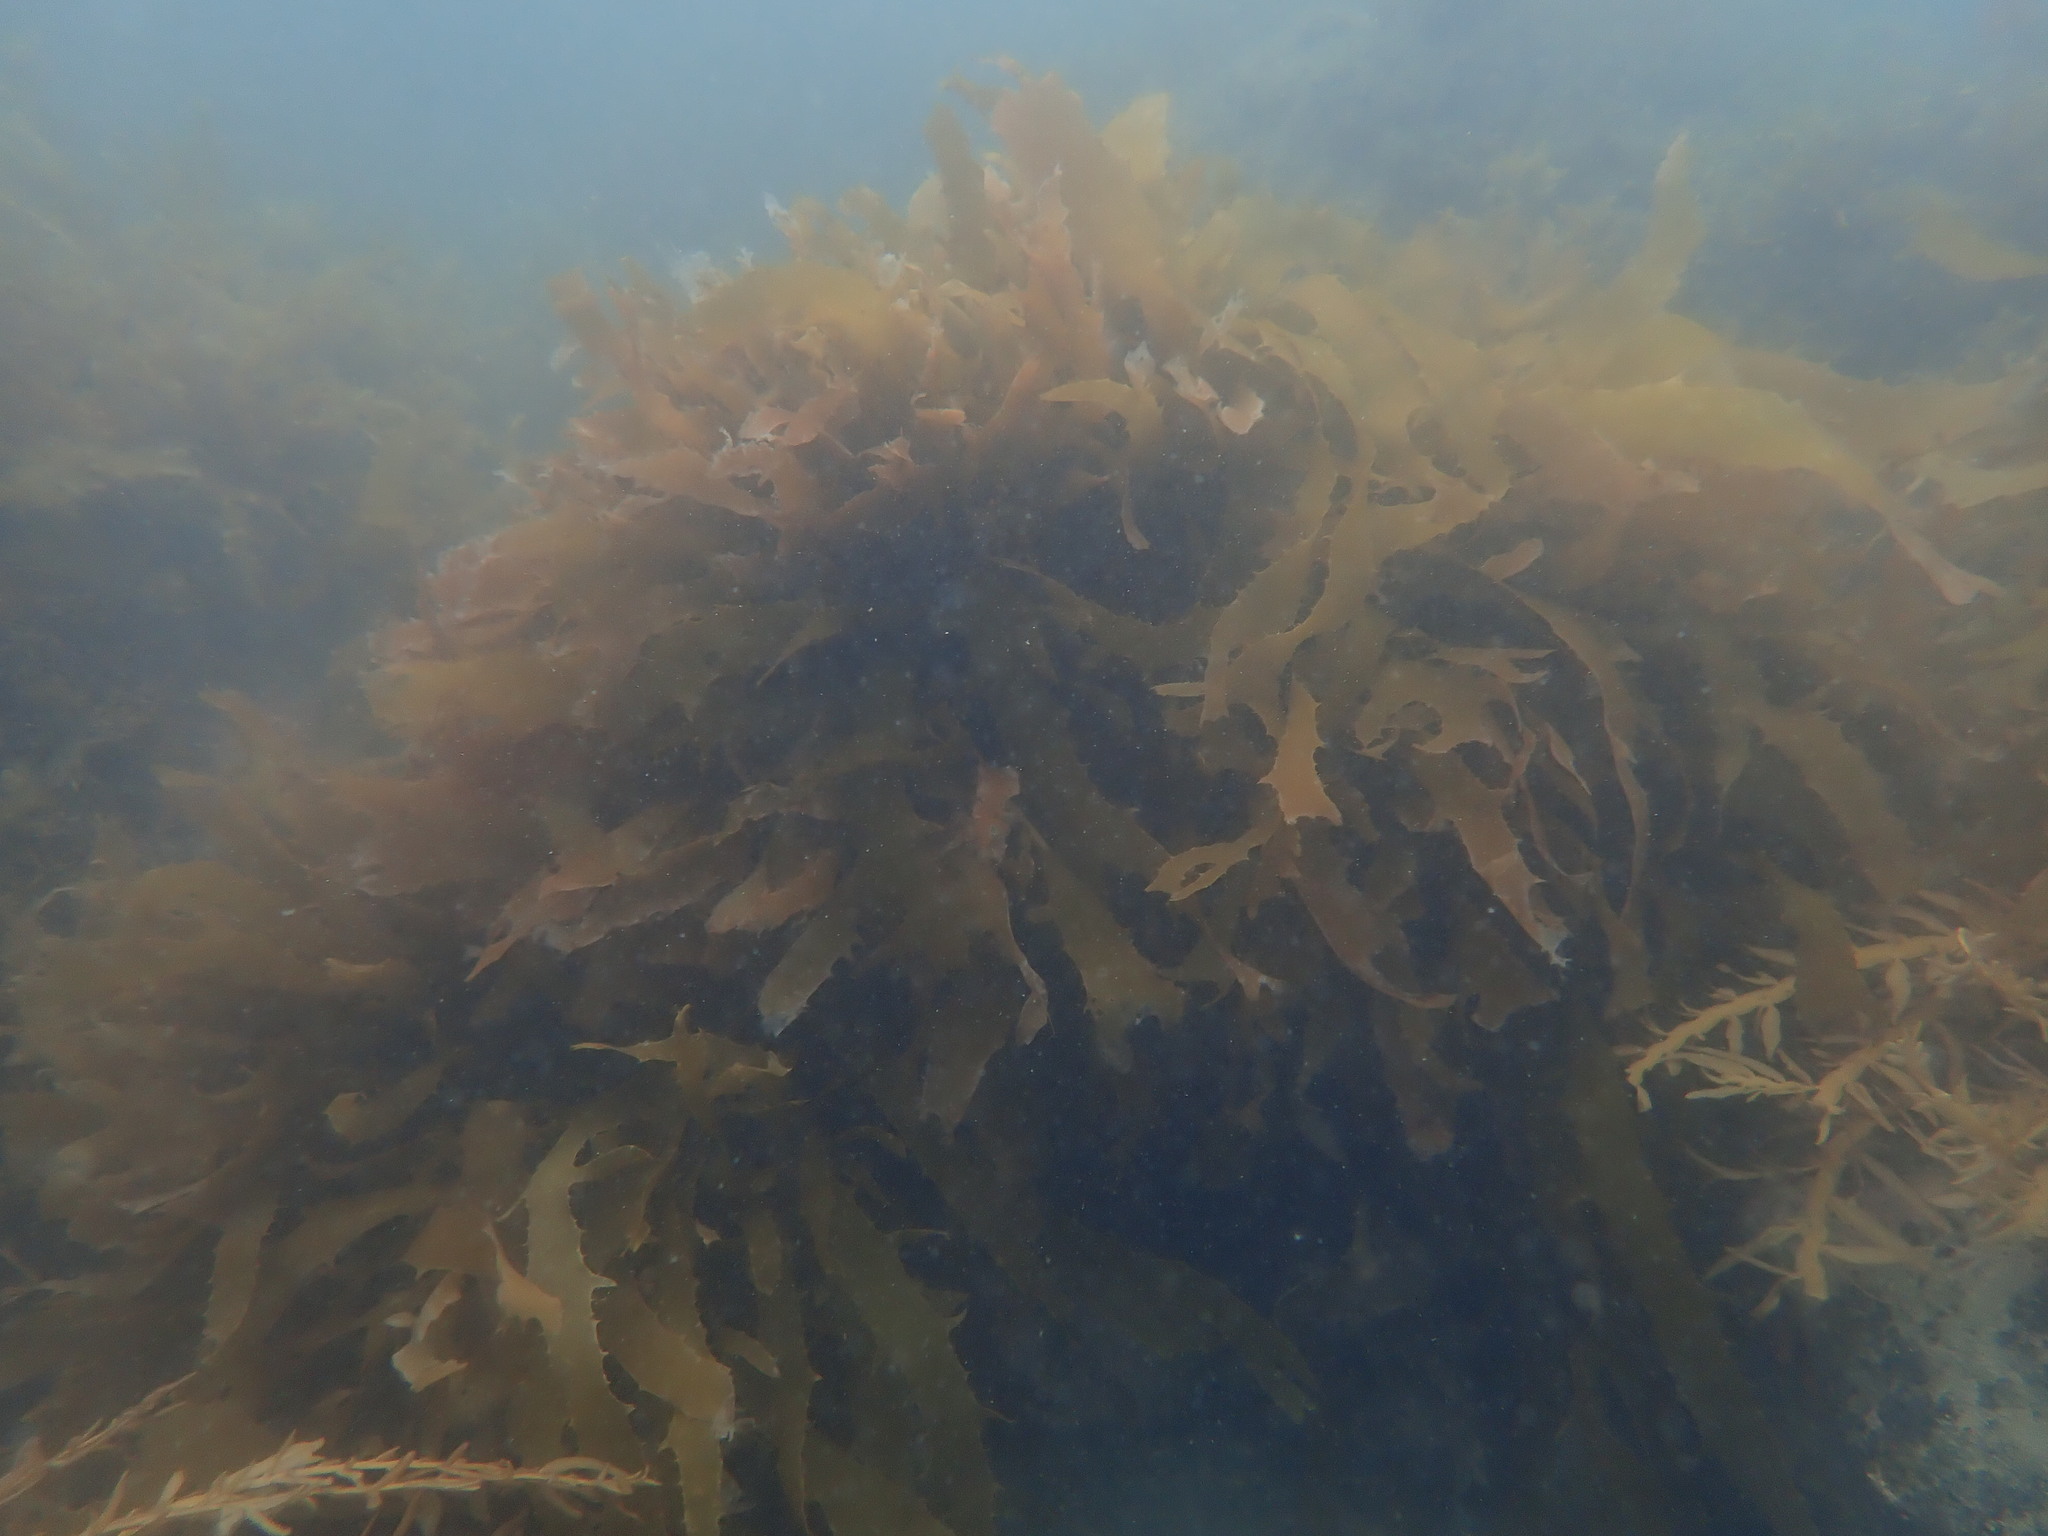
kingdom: Chromista
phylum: Ochrophyta
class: Phaeophyceae
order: Laminariales
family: Lessoniaceae
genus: Ecklonia
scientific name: Ecklonia radiata
